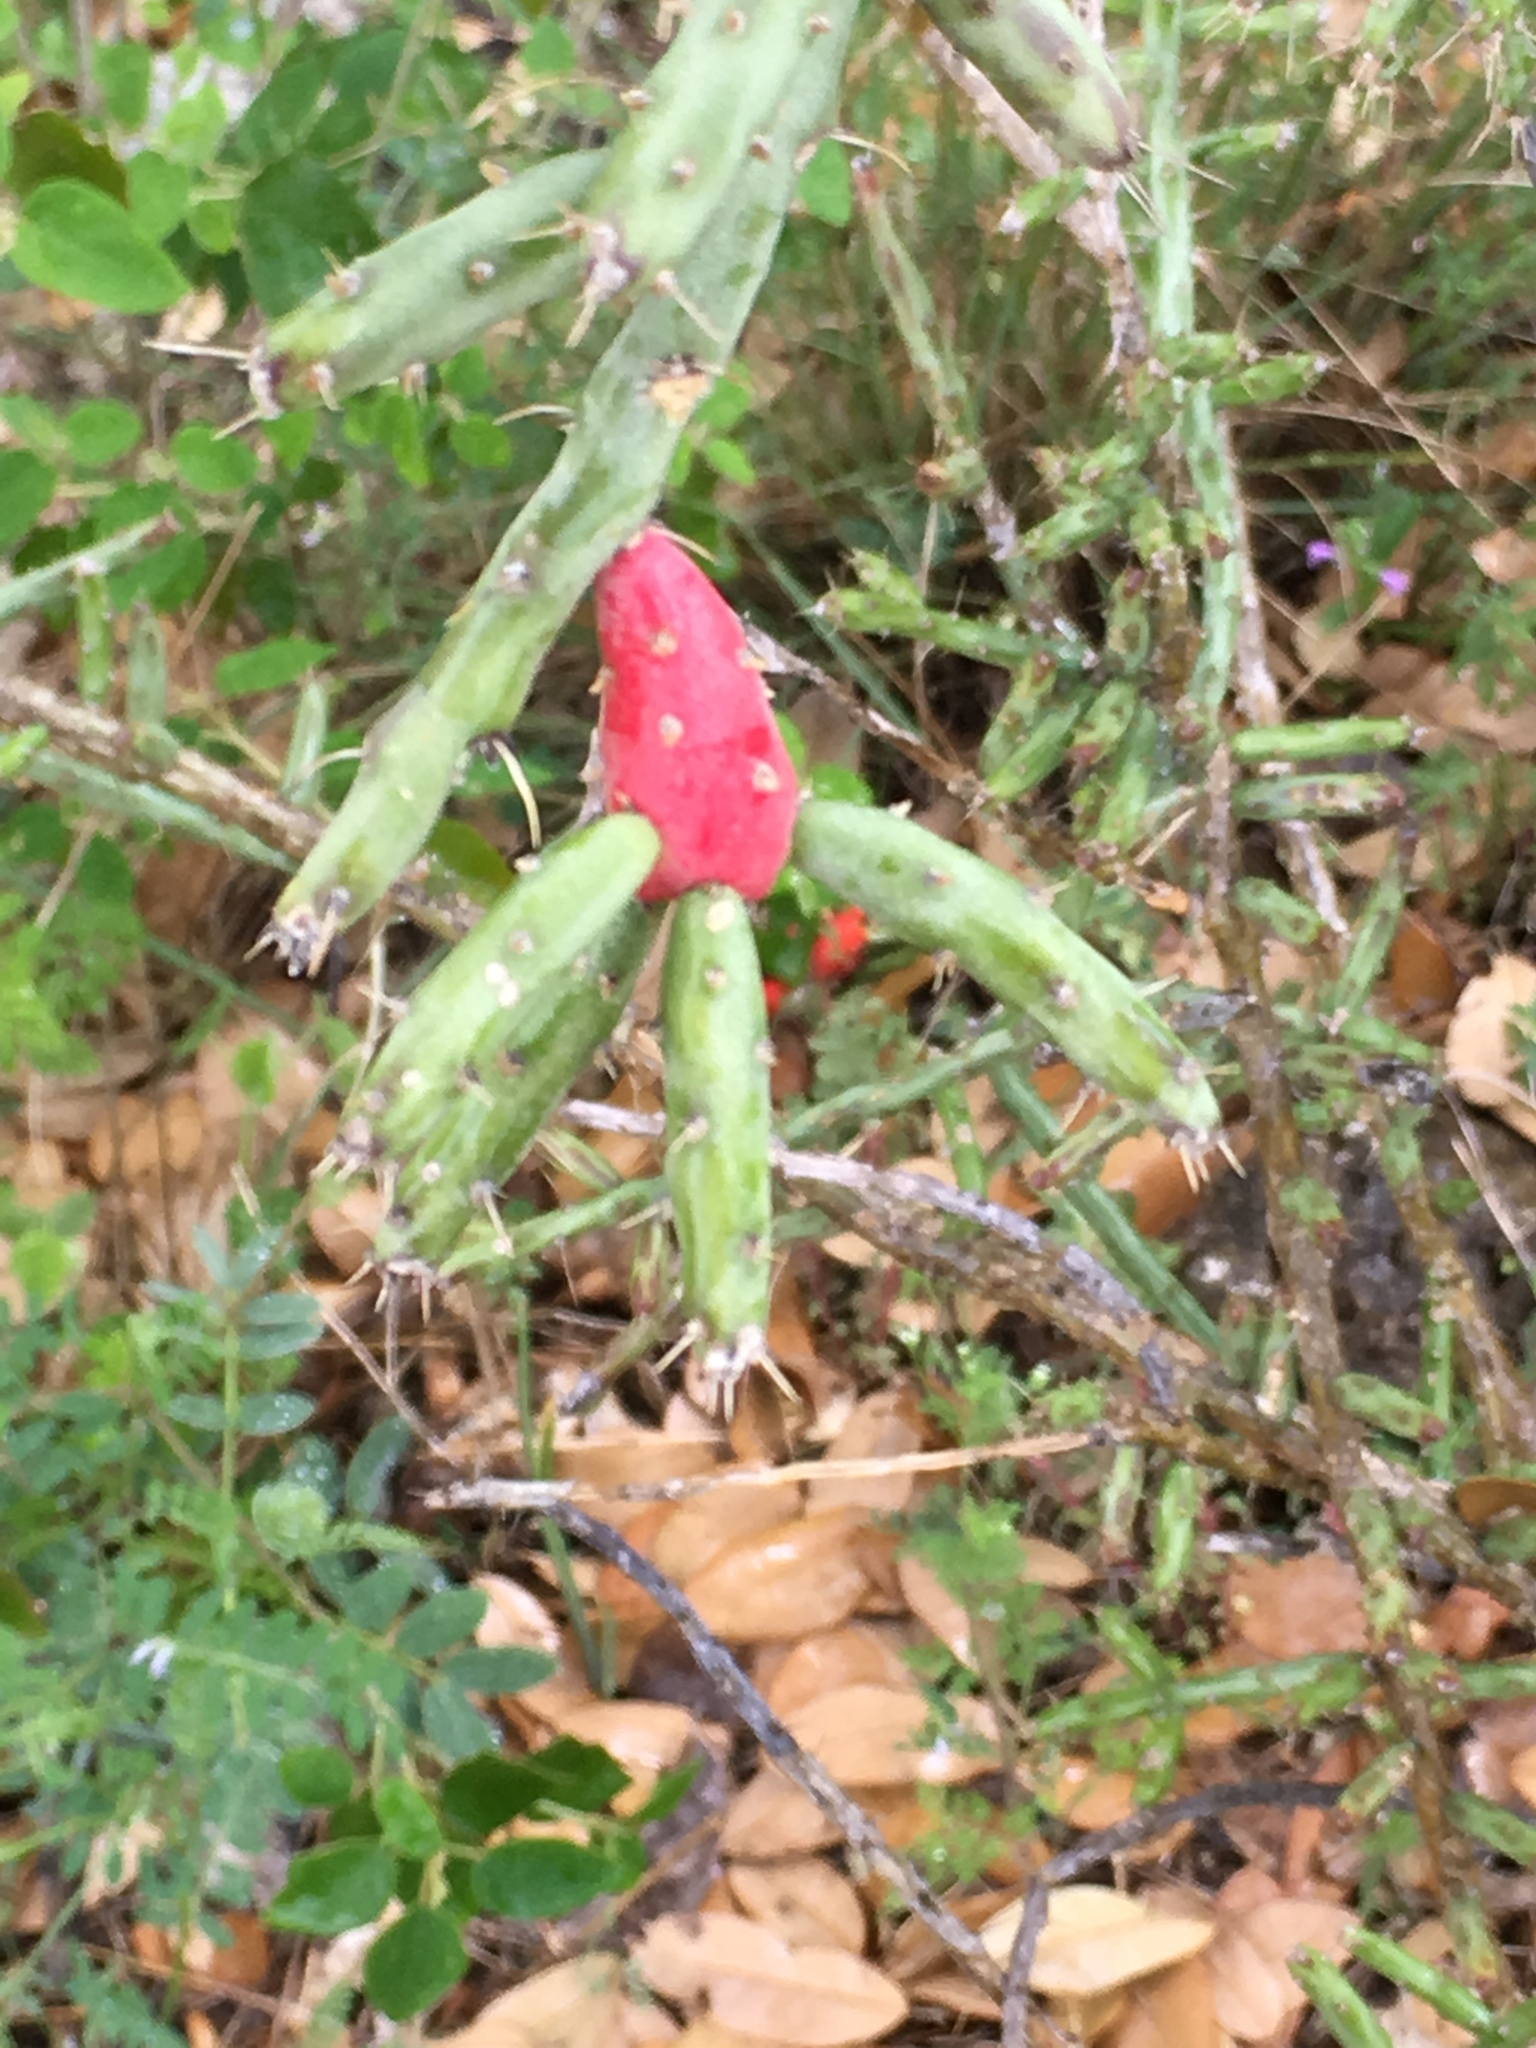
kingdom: Plantae
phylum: Tracheophyta
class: Magnoliopsida
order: Caryophyllales
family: Cactaceae
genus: Cylindropuntia
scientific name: Cylindropuntia leptocaulis
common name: Christmas cactus
